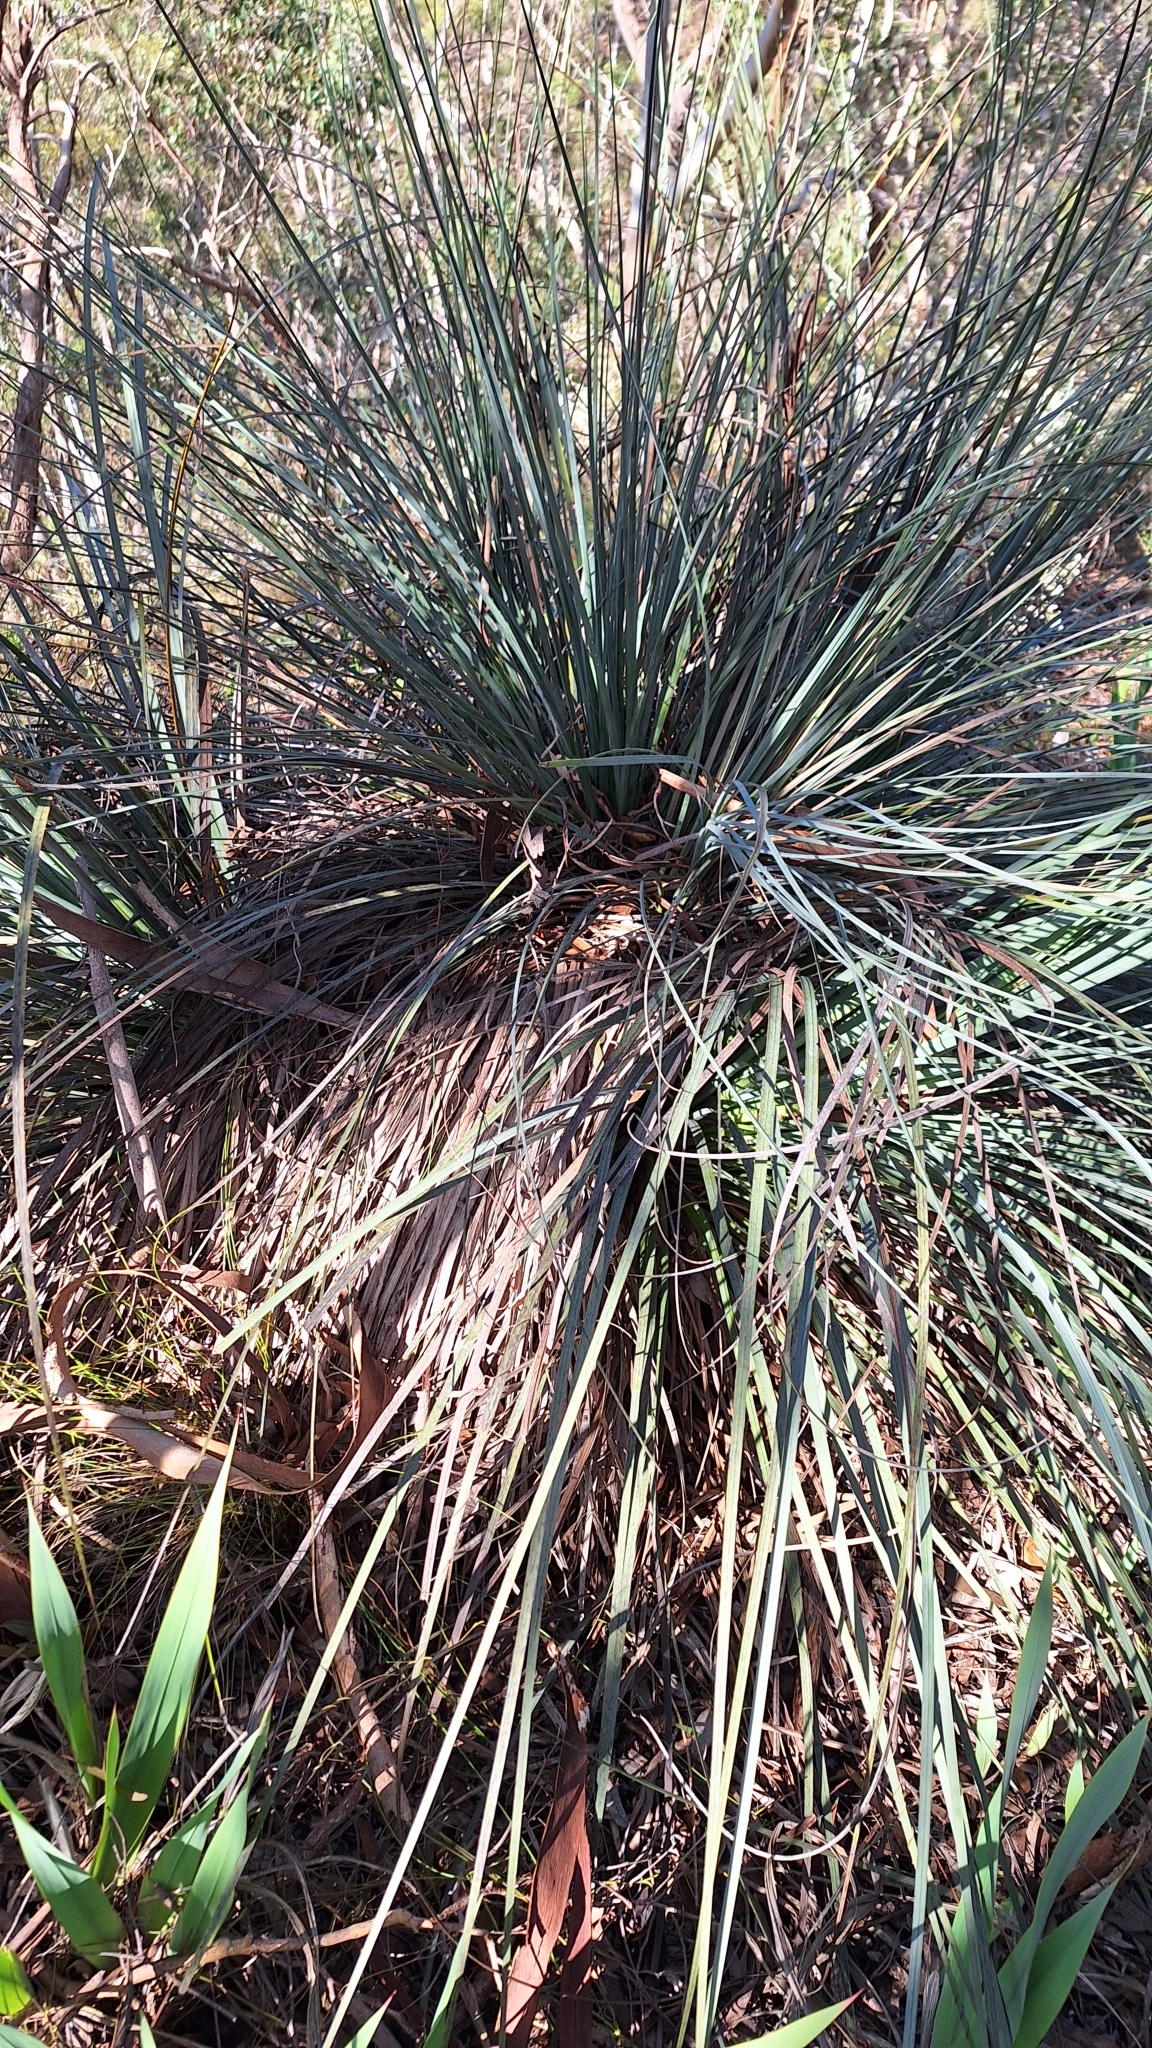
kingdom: Plantae
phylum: Tracheophyta
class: Liliopsida
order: Asparagales
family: Asphodelaceae
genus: Xanthorrhoea
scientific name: Xanthorrhoea semiplana
